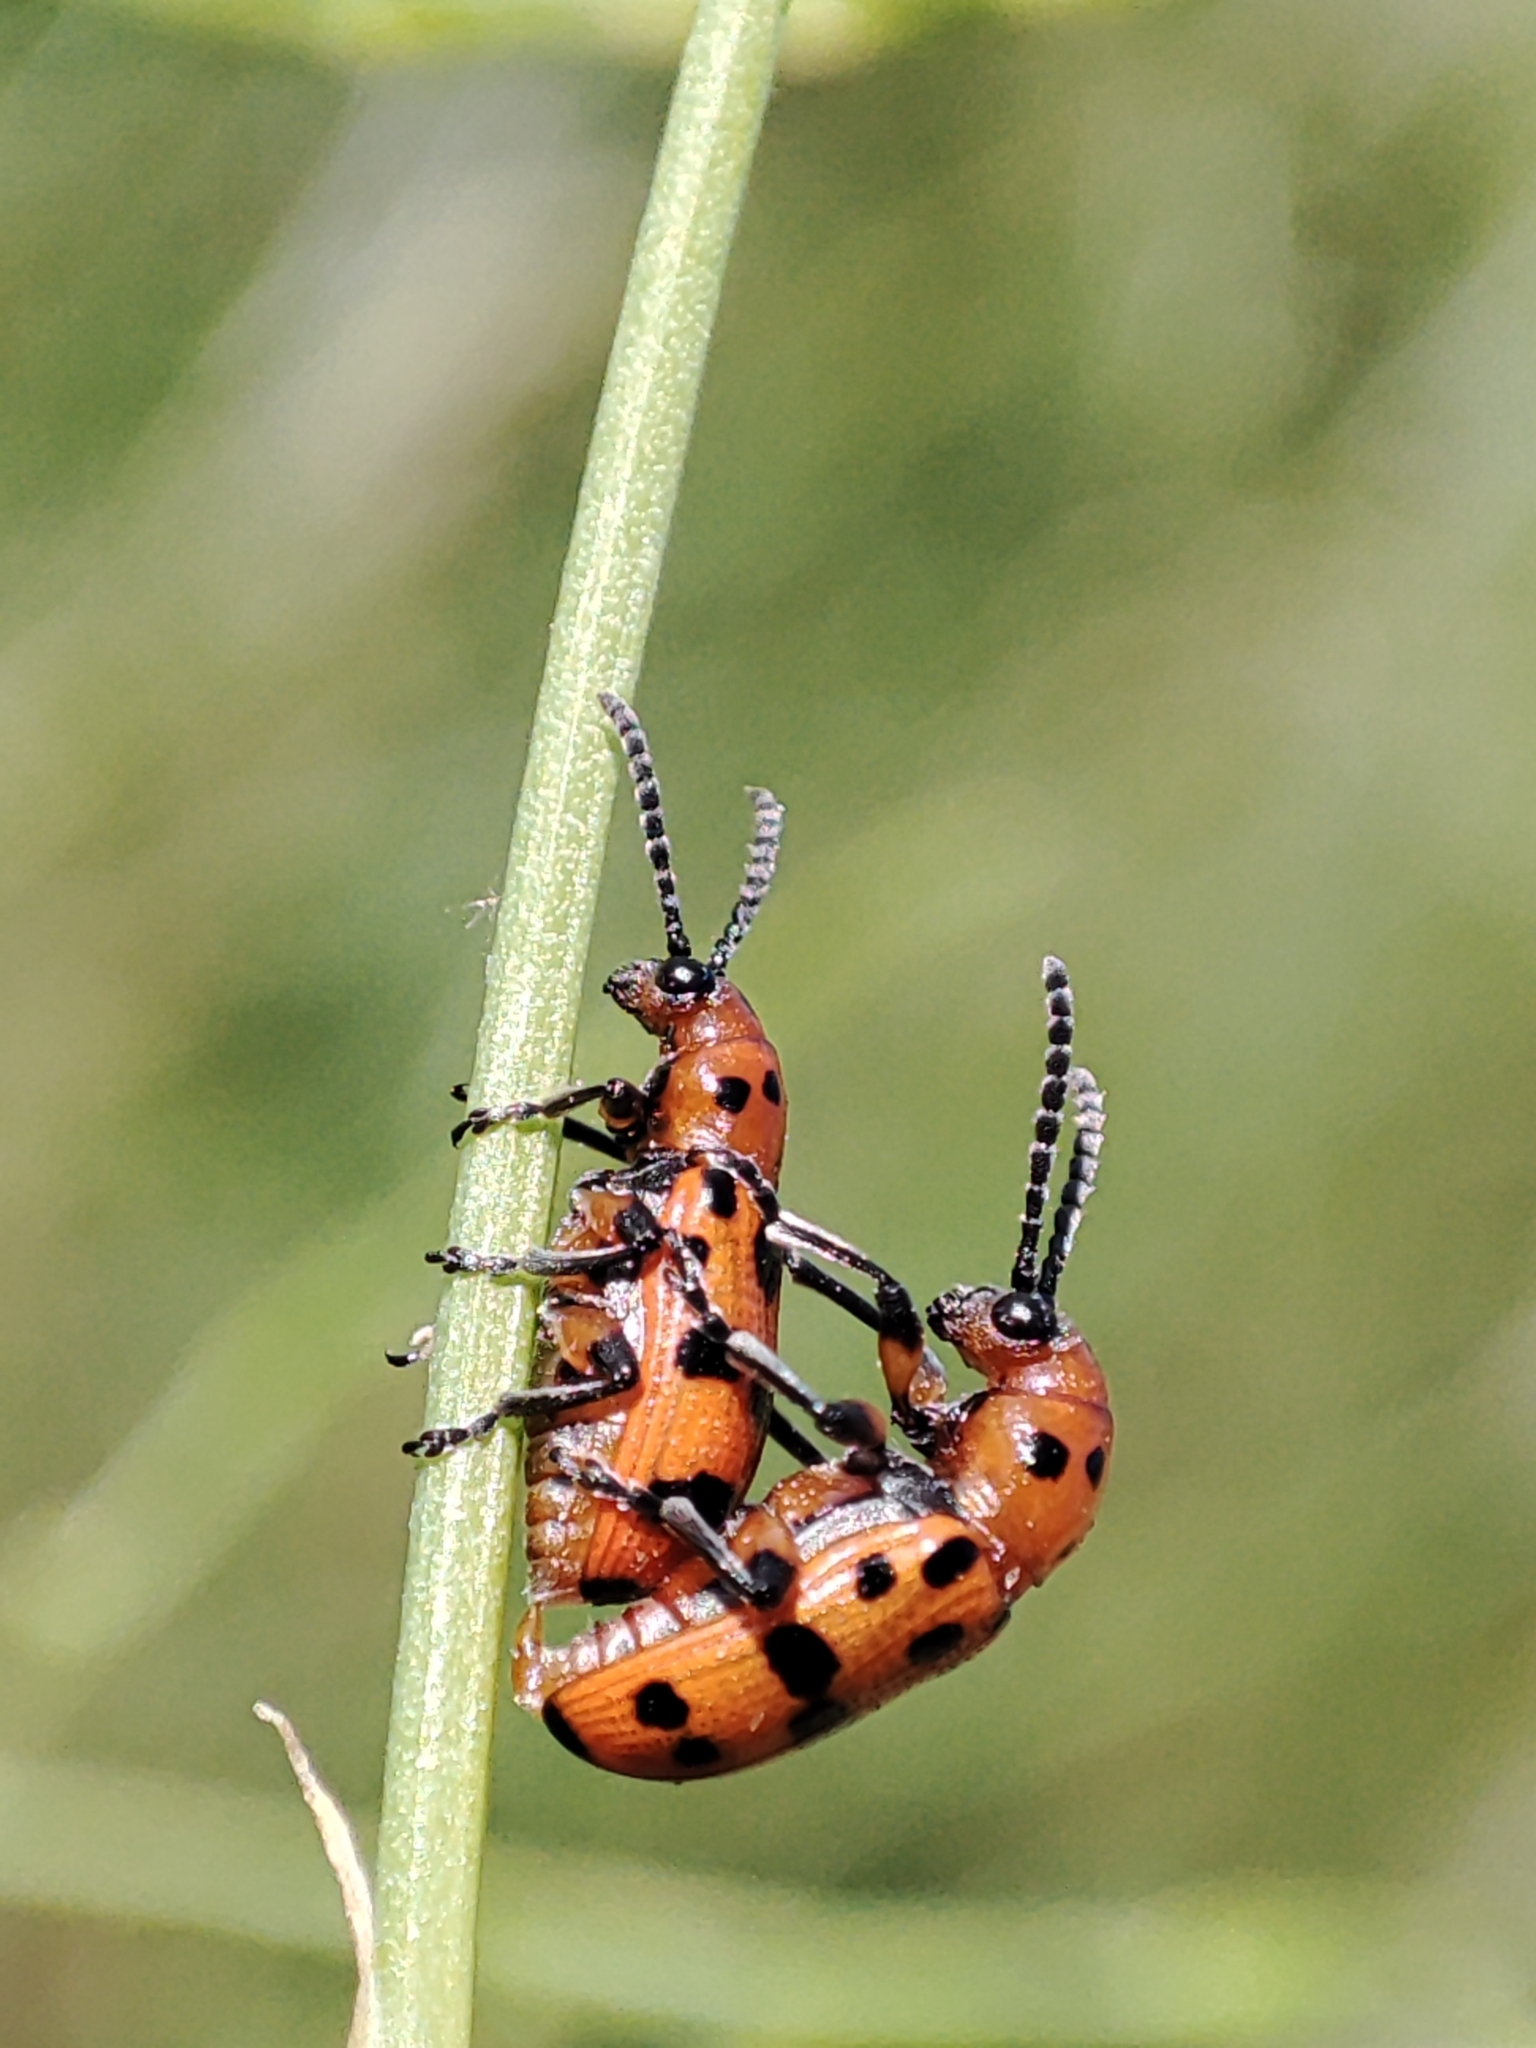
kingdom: Animalia
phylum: Arthropoda
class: Insecta
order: Coleoptera
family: Chrysomelidae
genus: Crioceris
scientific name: Crioceris quatuordecimpunctata
